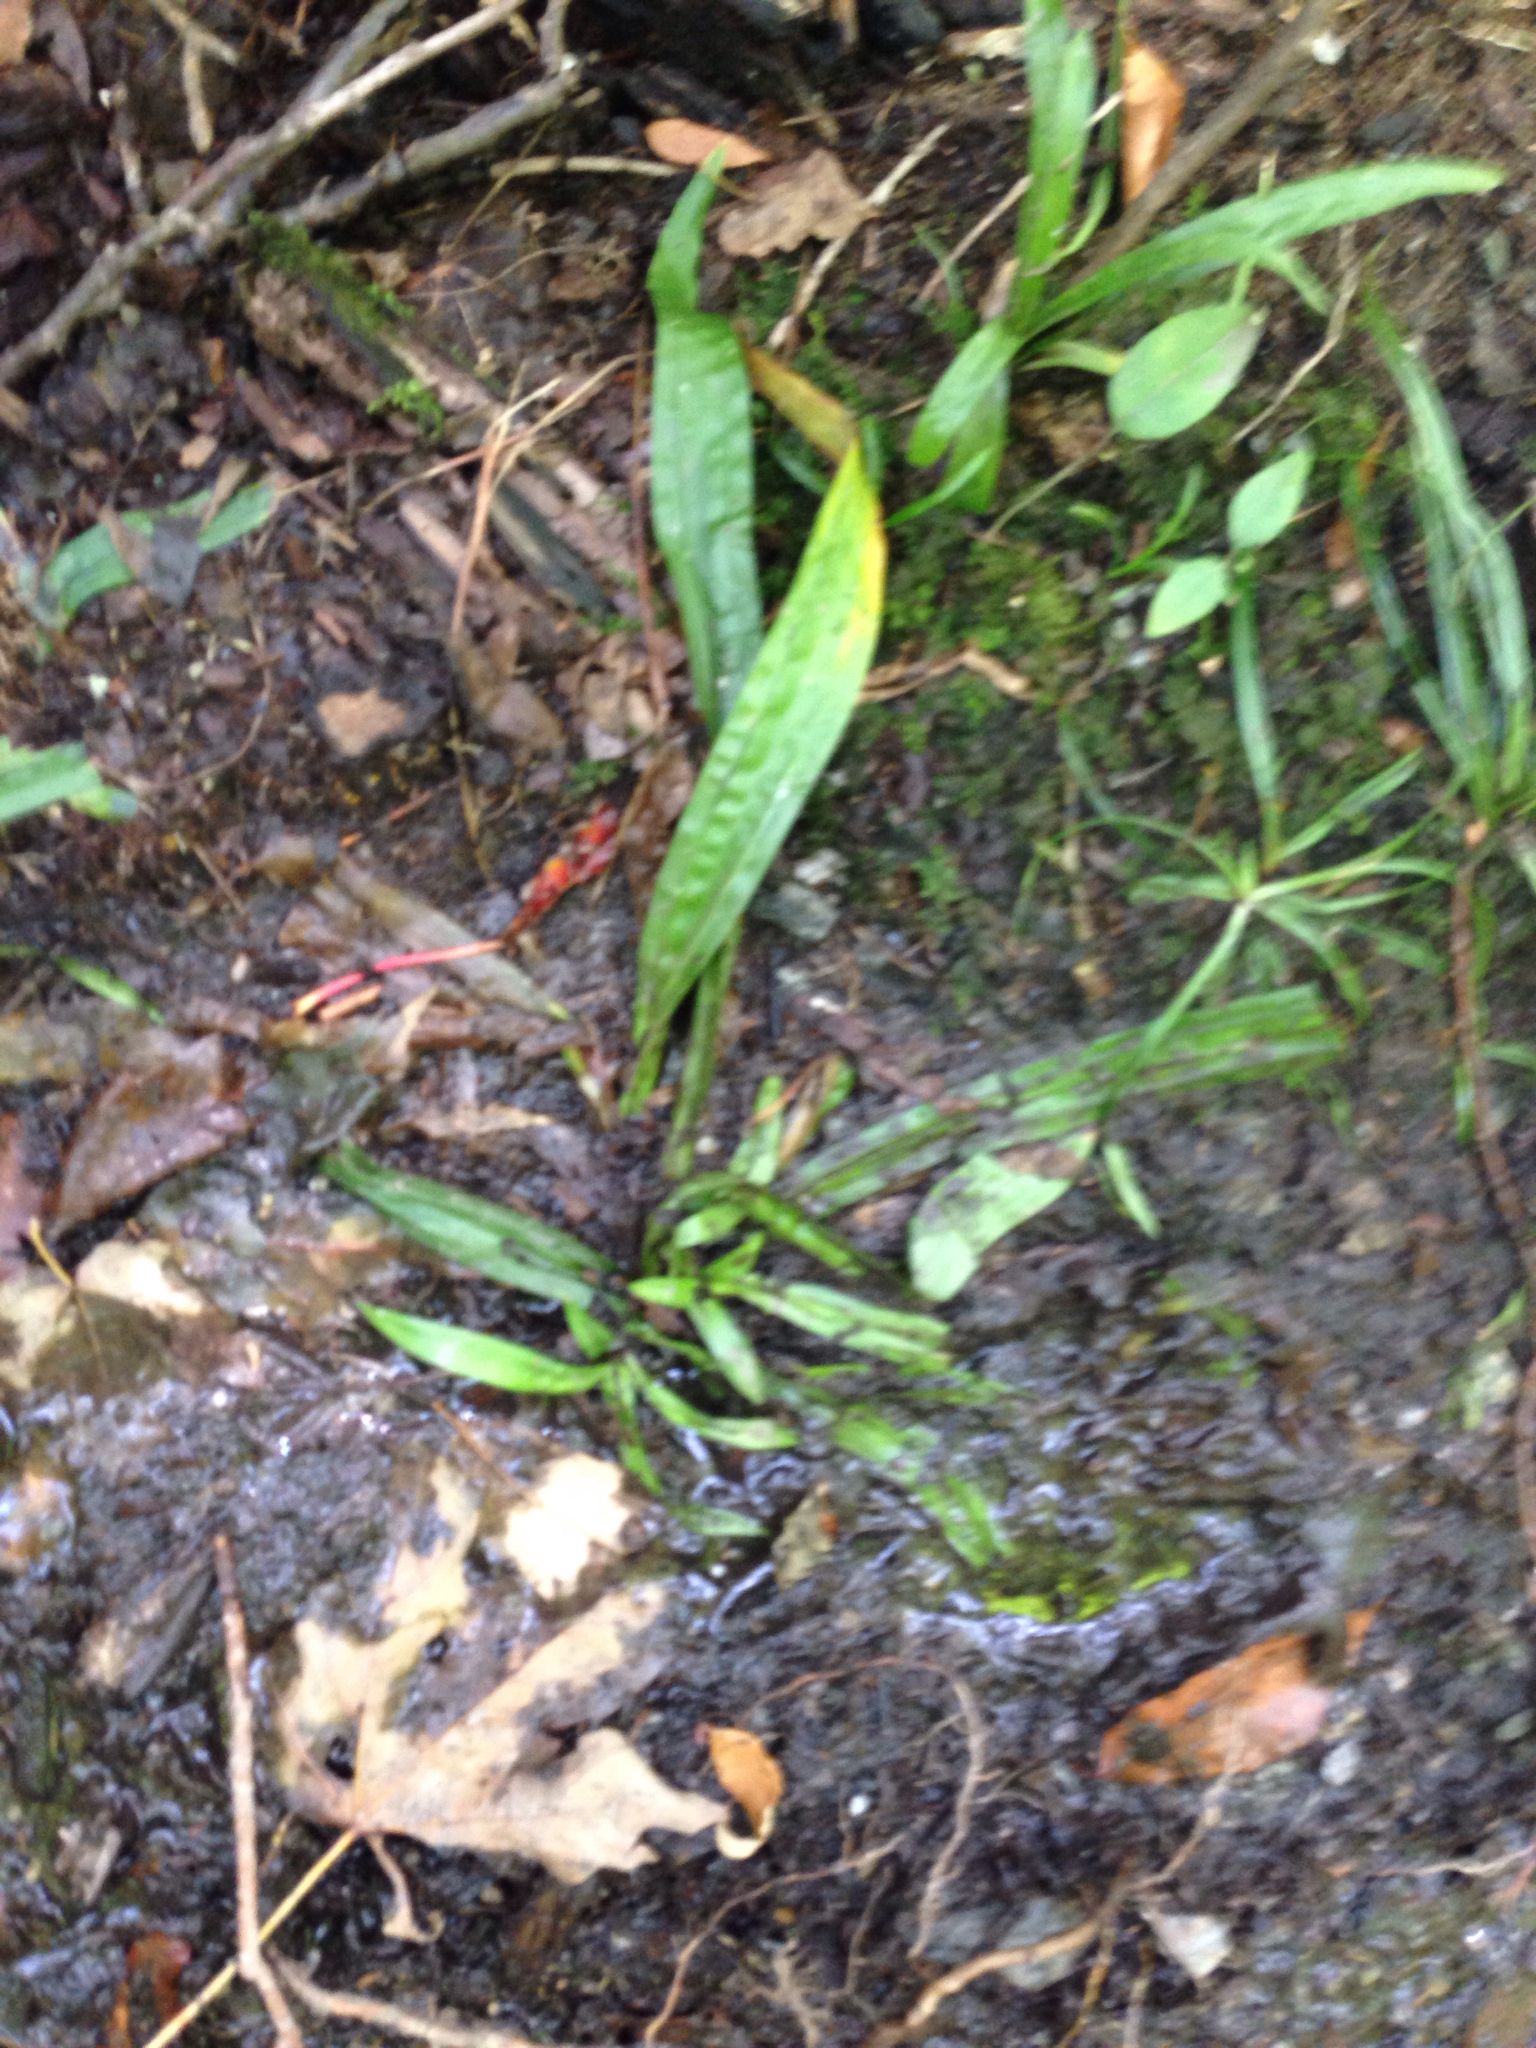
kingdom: Plantae
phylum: Tracheophyta
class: Liliopsida
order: Poales
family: Cyperaceae
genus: Carex
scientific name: Carex plantaginea
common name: Plantain-leaved sedge
